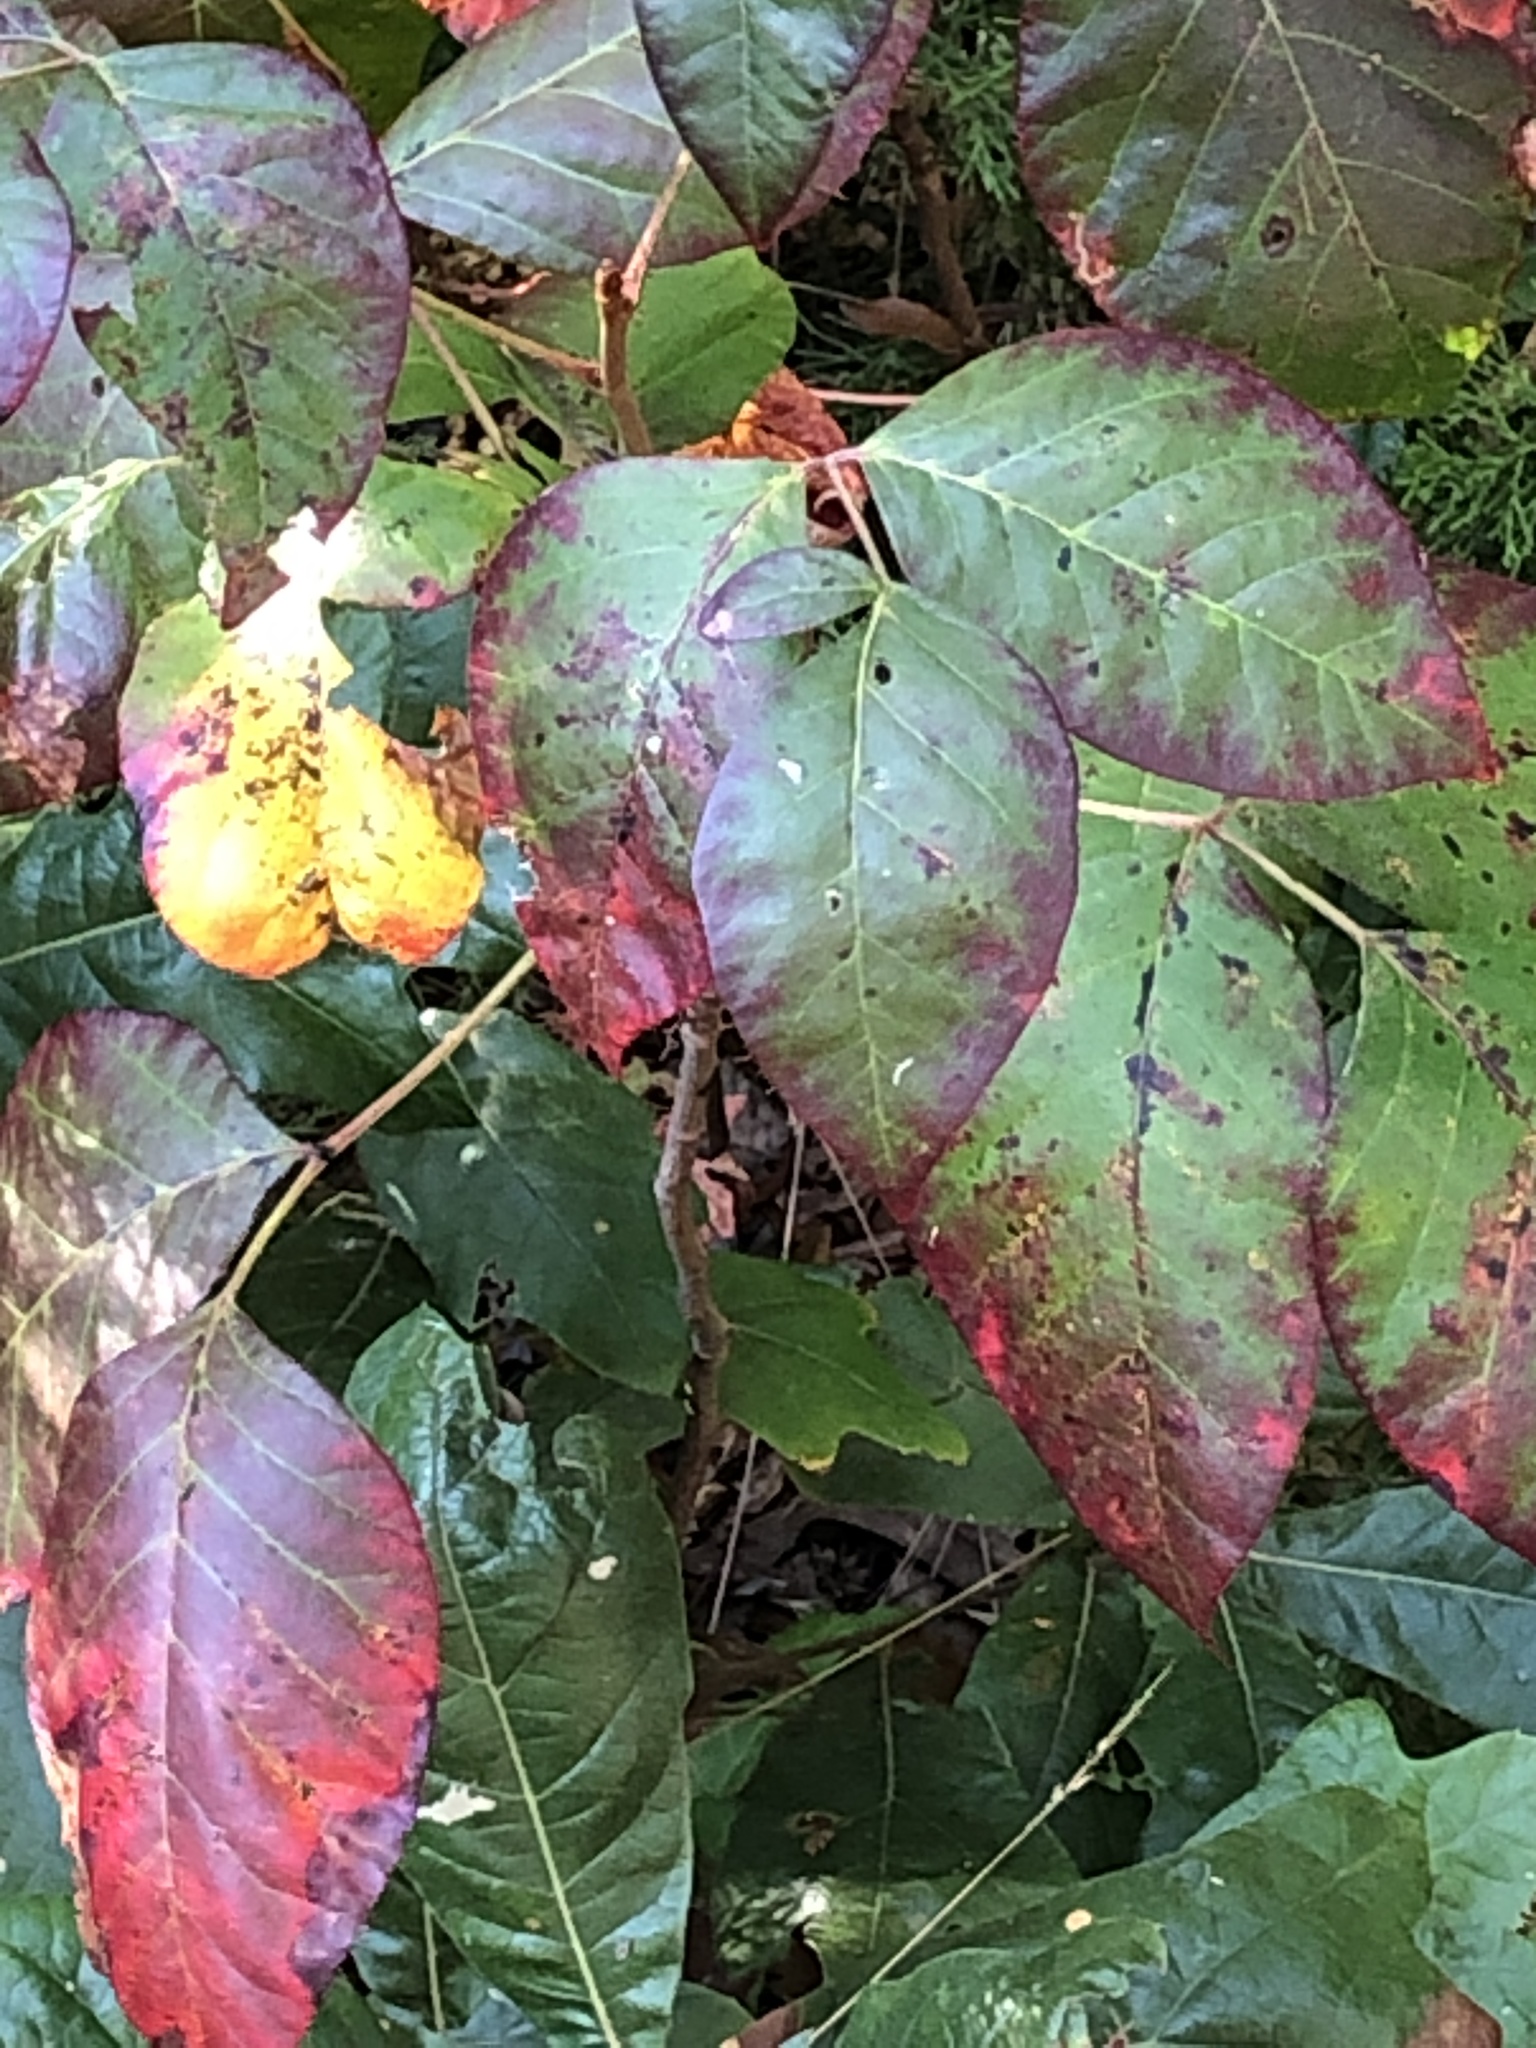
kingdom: Plantae
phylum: Tracheophyta
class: Magnoliopsida
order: Sapindales
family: Anacardiaceae
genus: Toxicodendron
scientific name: Toxicodendron radicans
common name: Poison ivy
